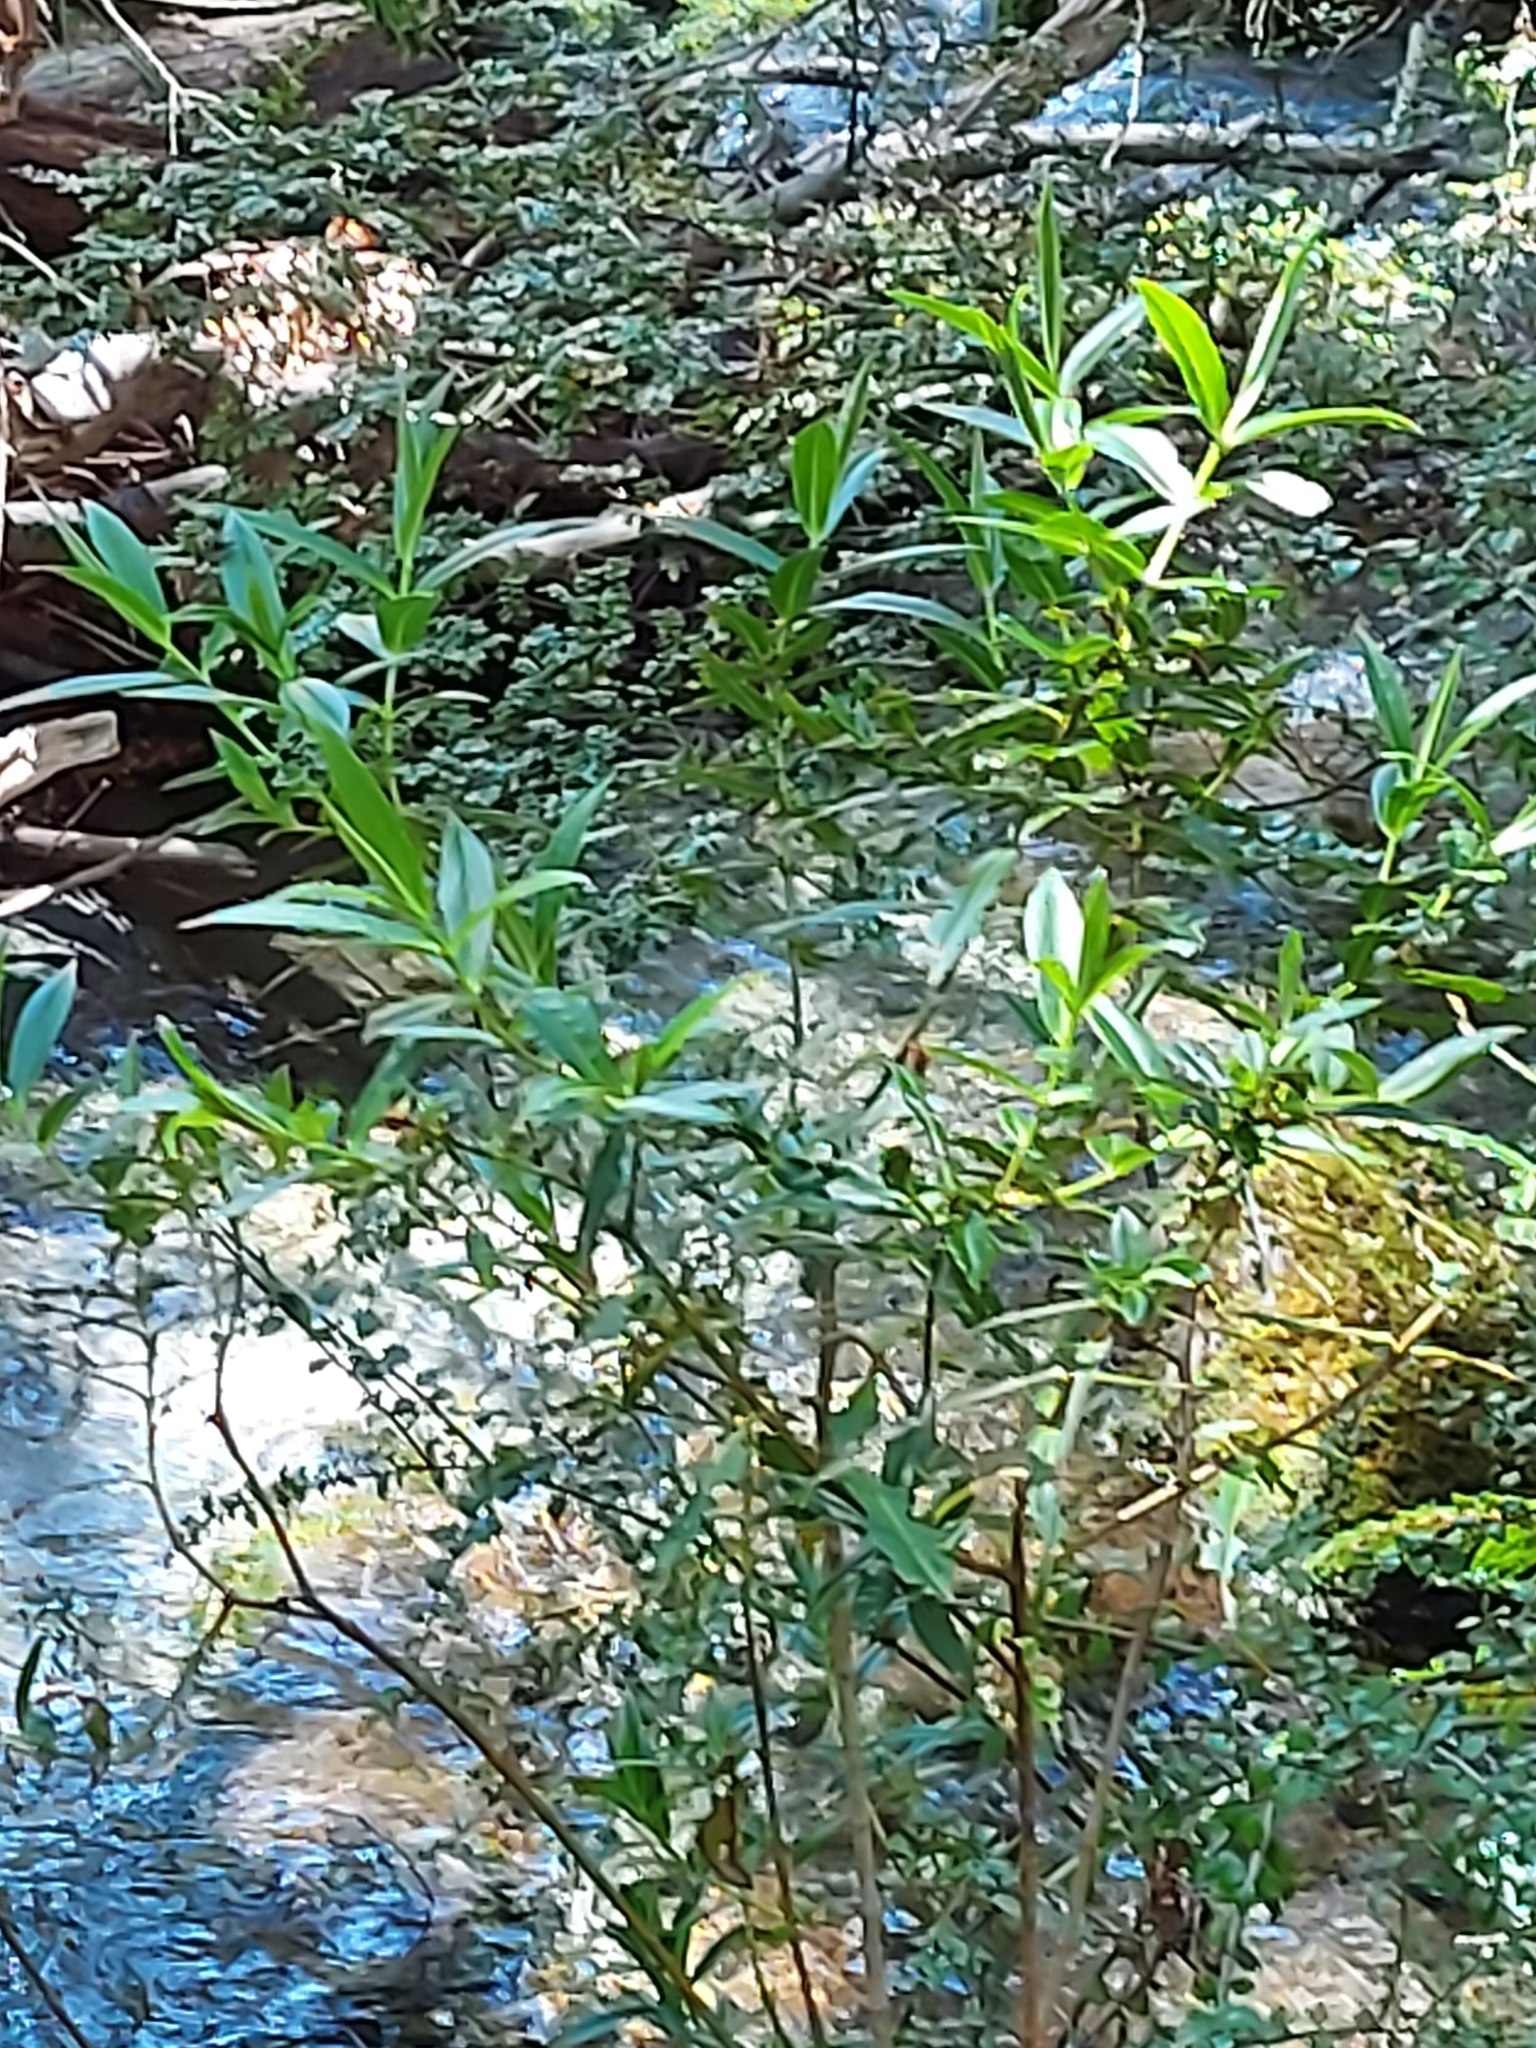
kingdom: Plantae
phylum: Tracheophyta
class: Magnoliopsida
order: Lamiales
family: Plantaginaceae
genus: Veronica
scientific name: Veronica salicifolia
